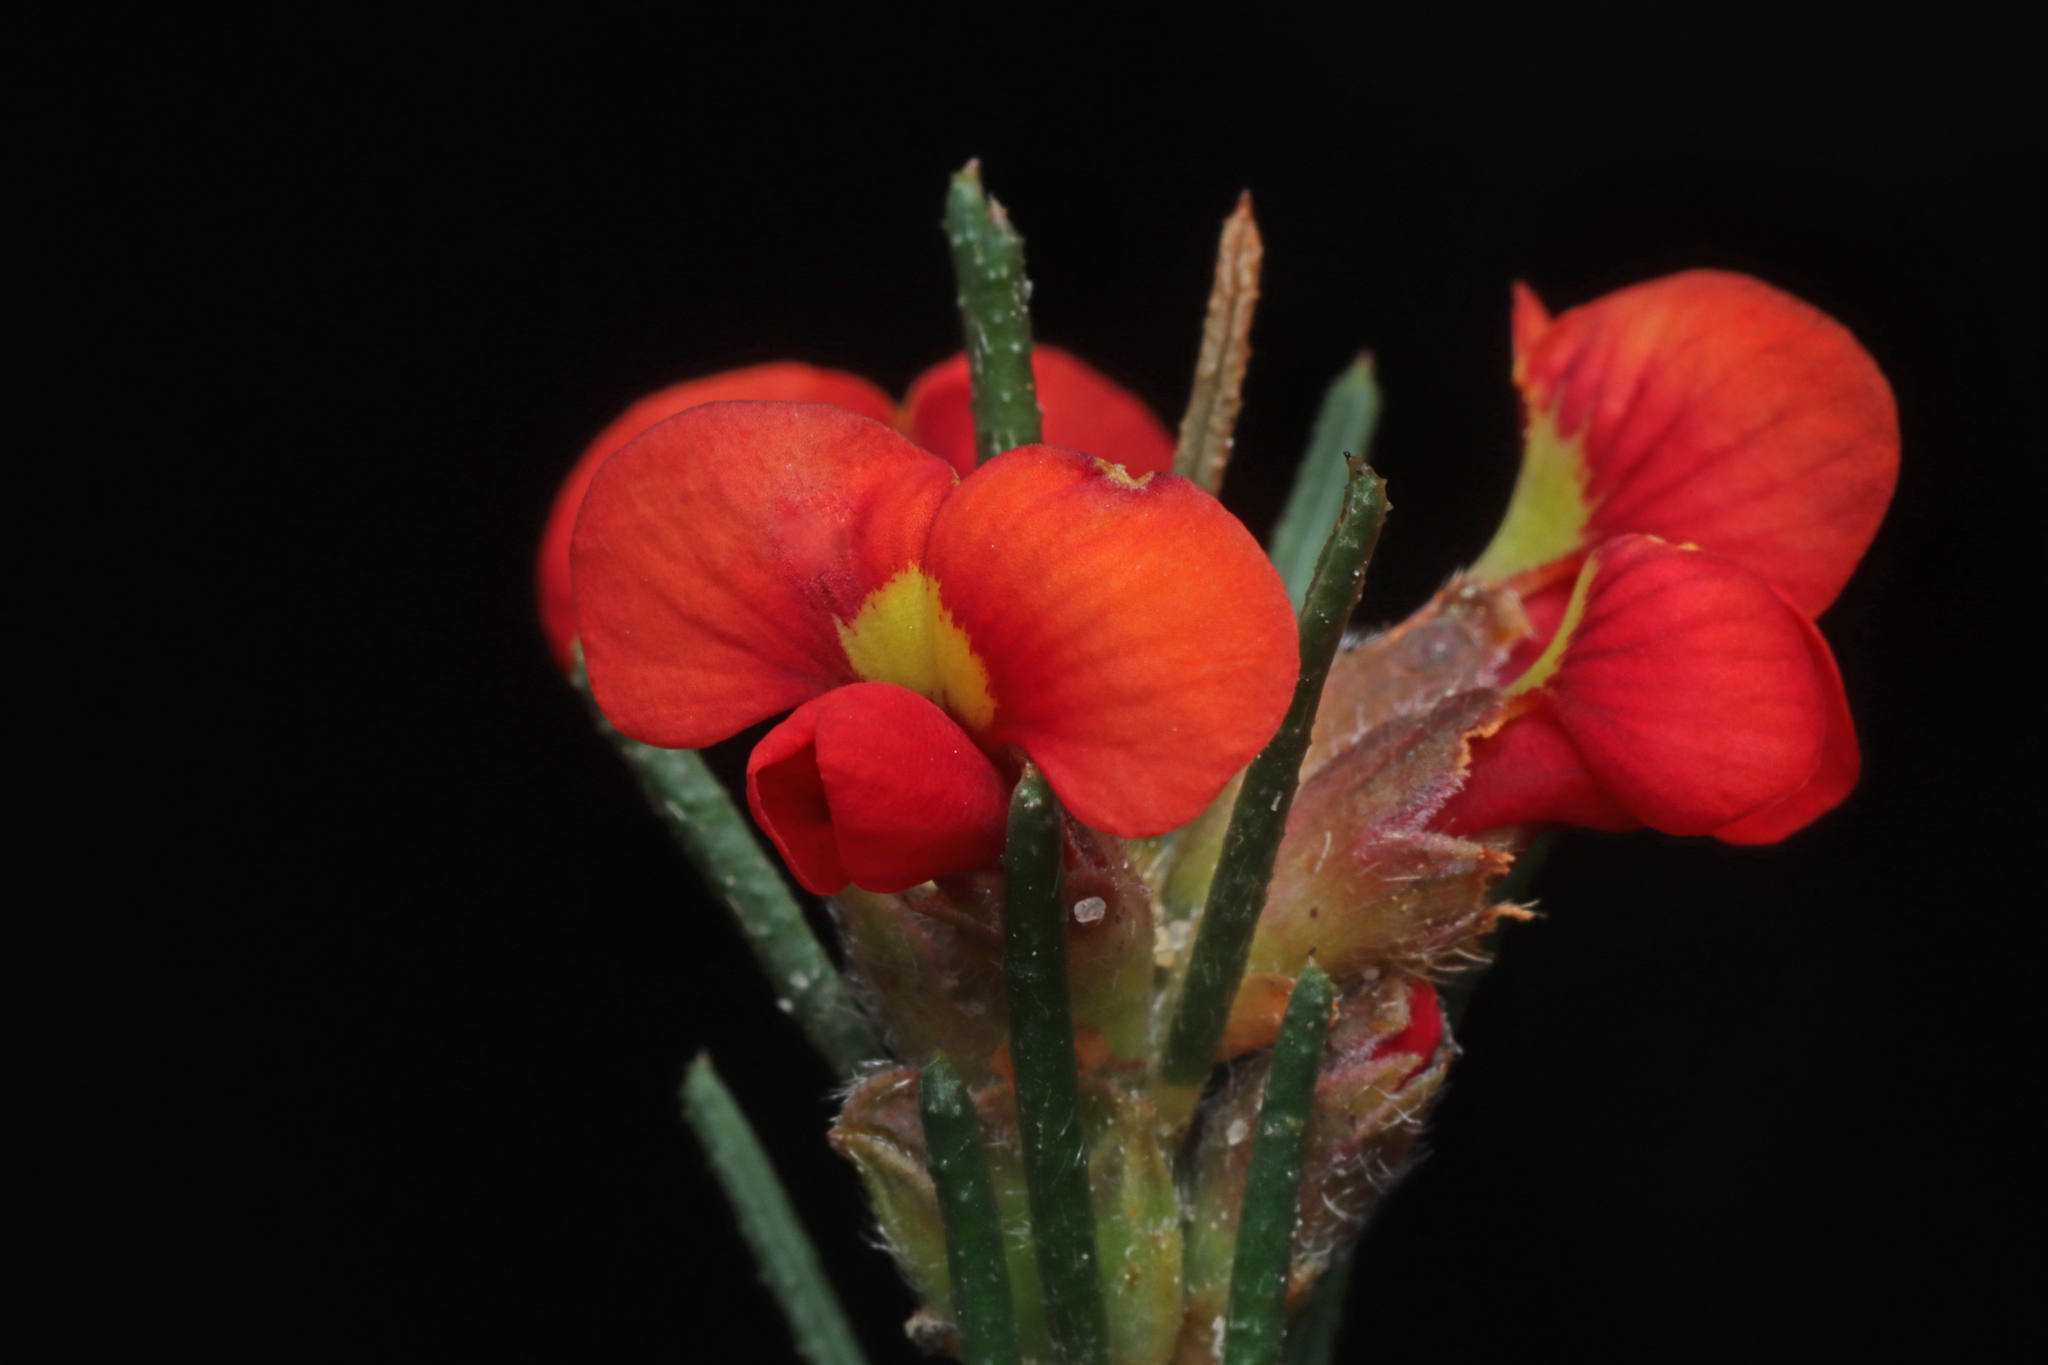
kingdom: Plantae
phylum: Tracheophyta
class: Magnoliopsida
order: Fabales
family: Fabaceae
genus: Dillwynia
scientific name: Dillwynia sericea
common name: Showy parrot-pea
